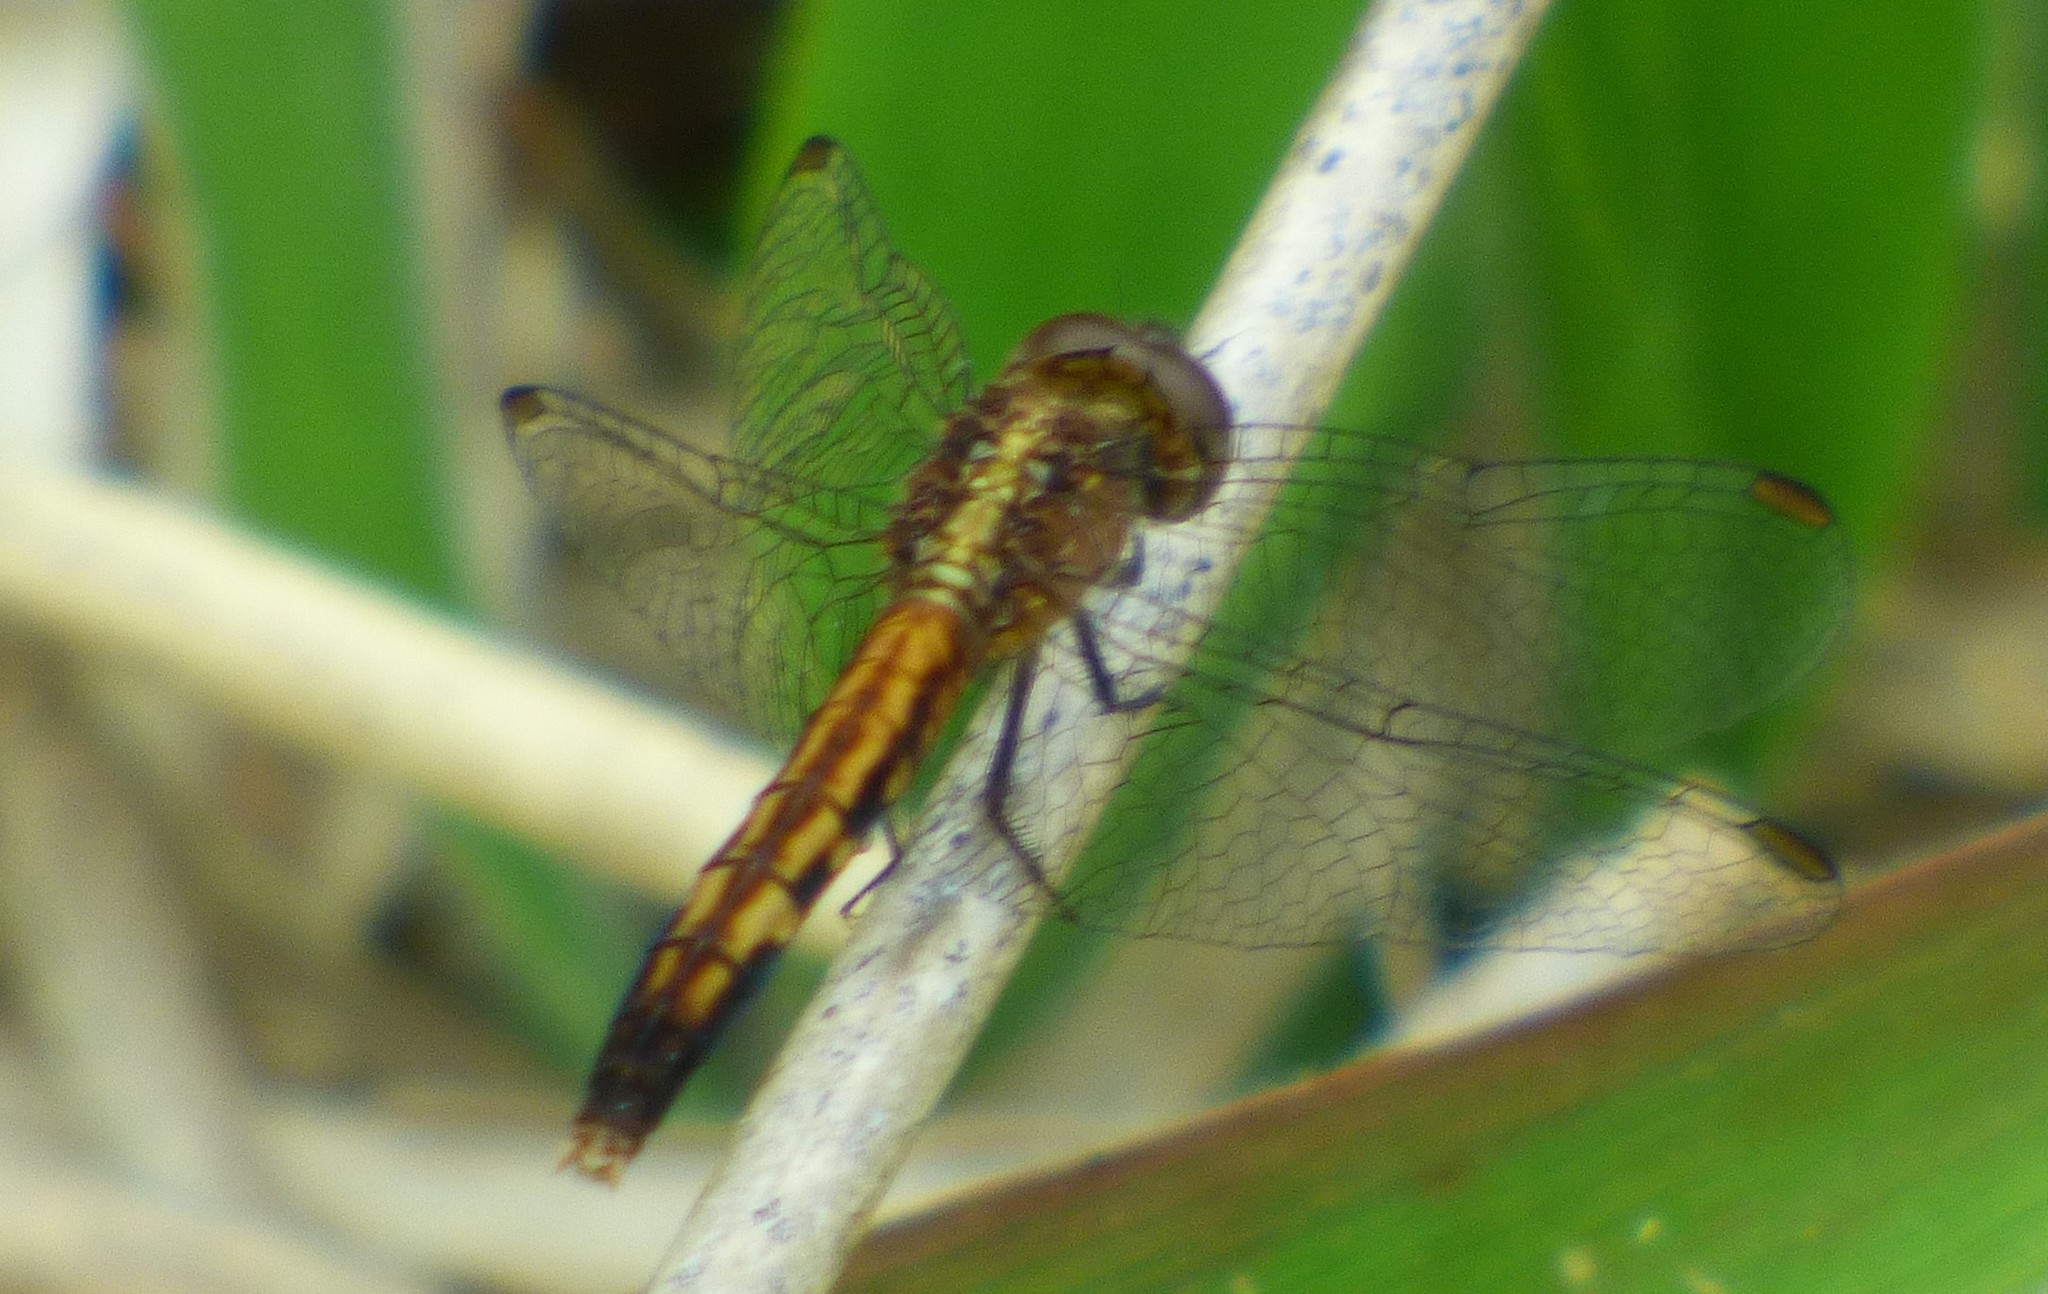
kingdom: Animalia
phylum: Arthropoda
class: Insecta
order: Odonata
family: Libellulidae
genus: Erythrodiplax
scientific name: Erythrodiplax minuscula
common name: Little blue dragonlet
